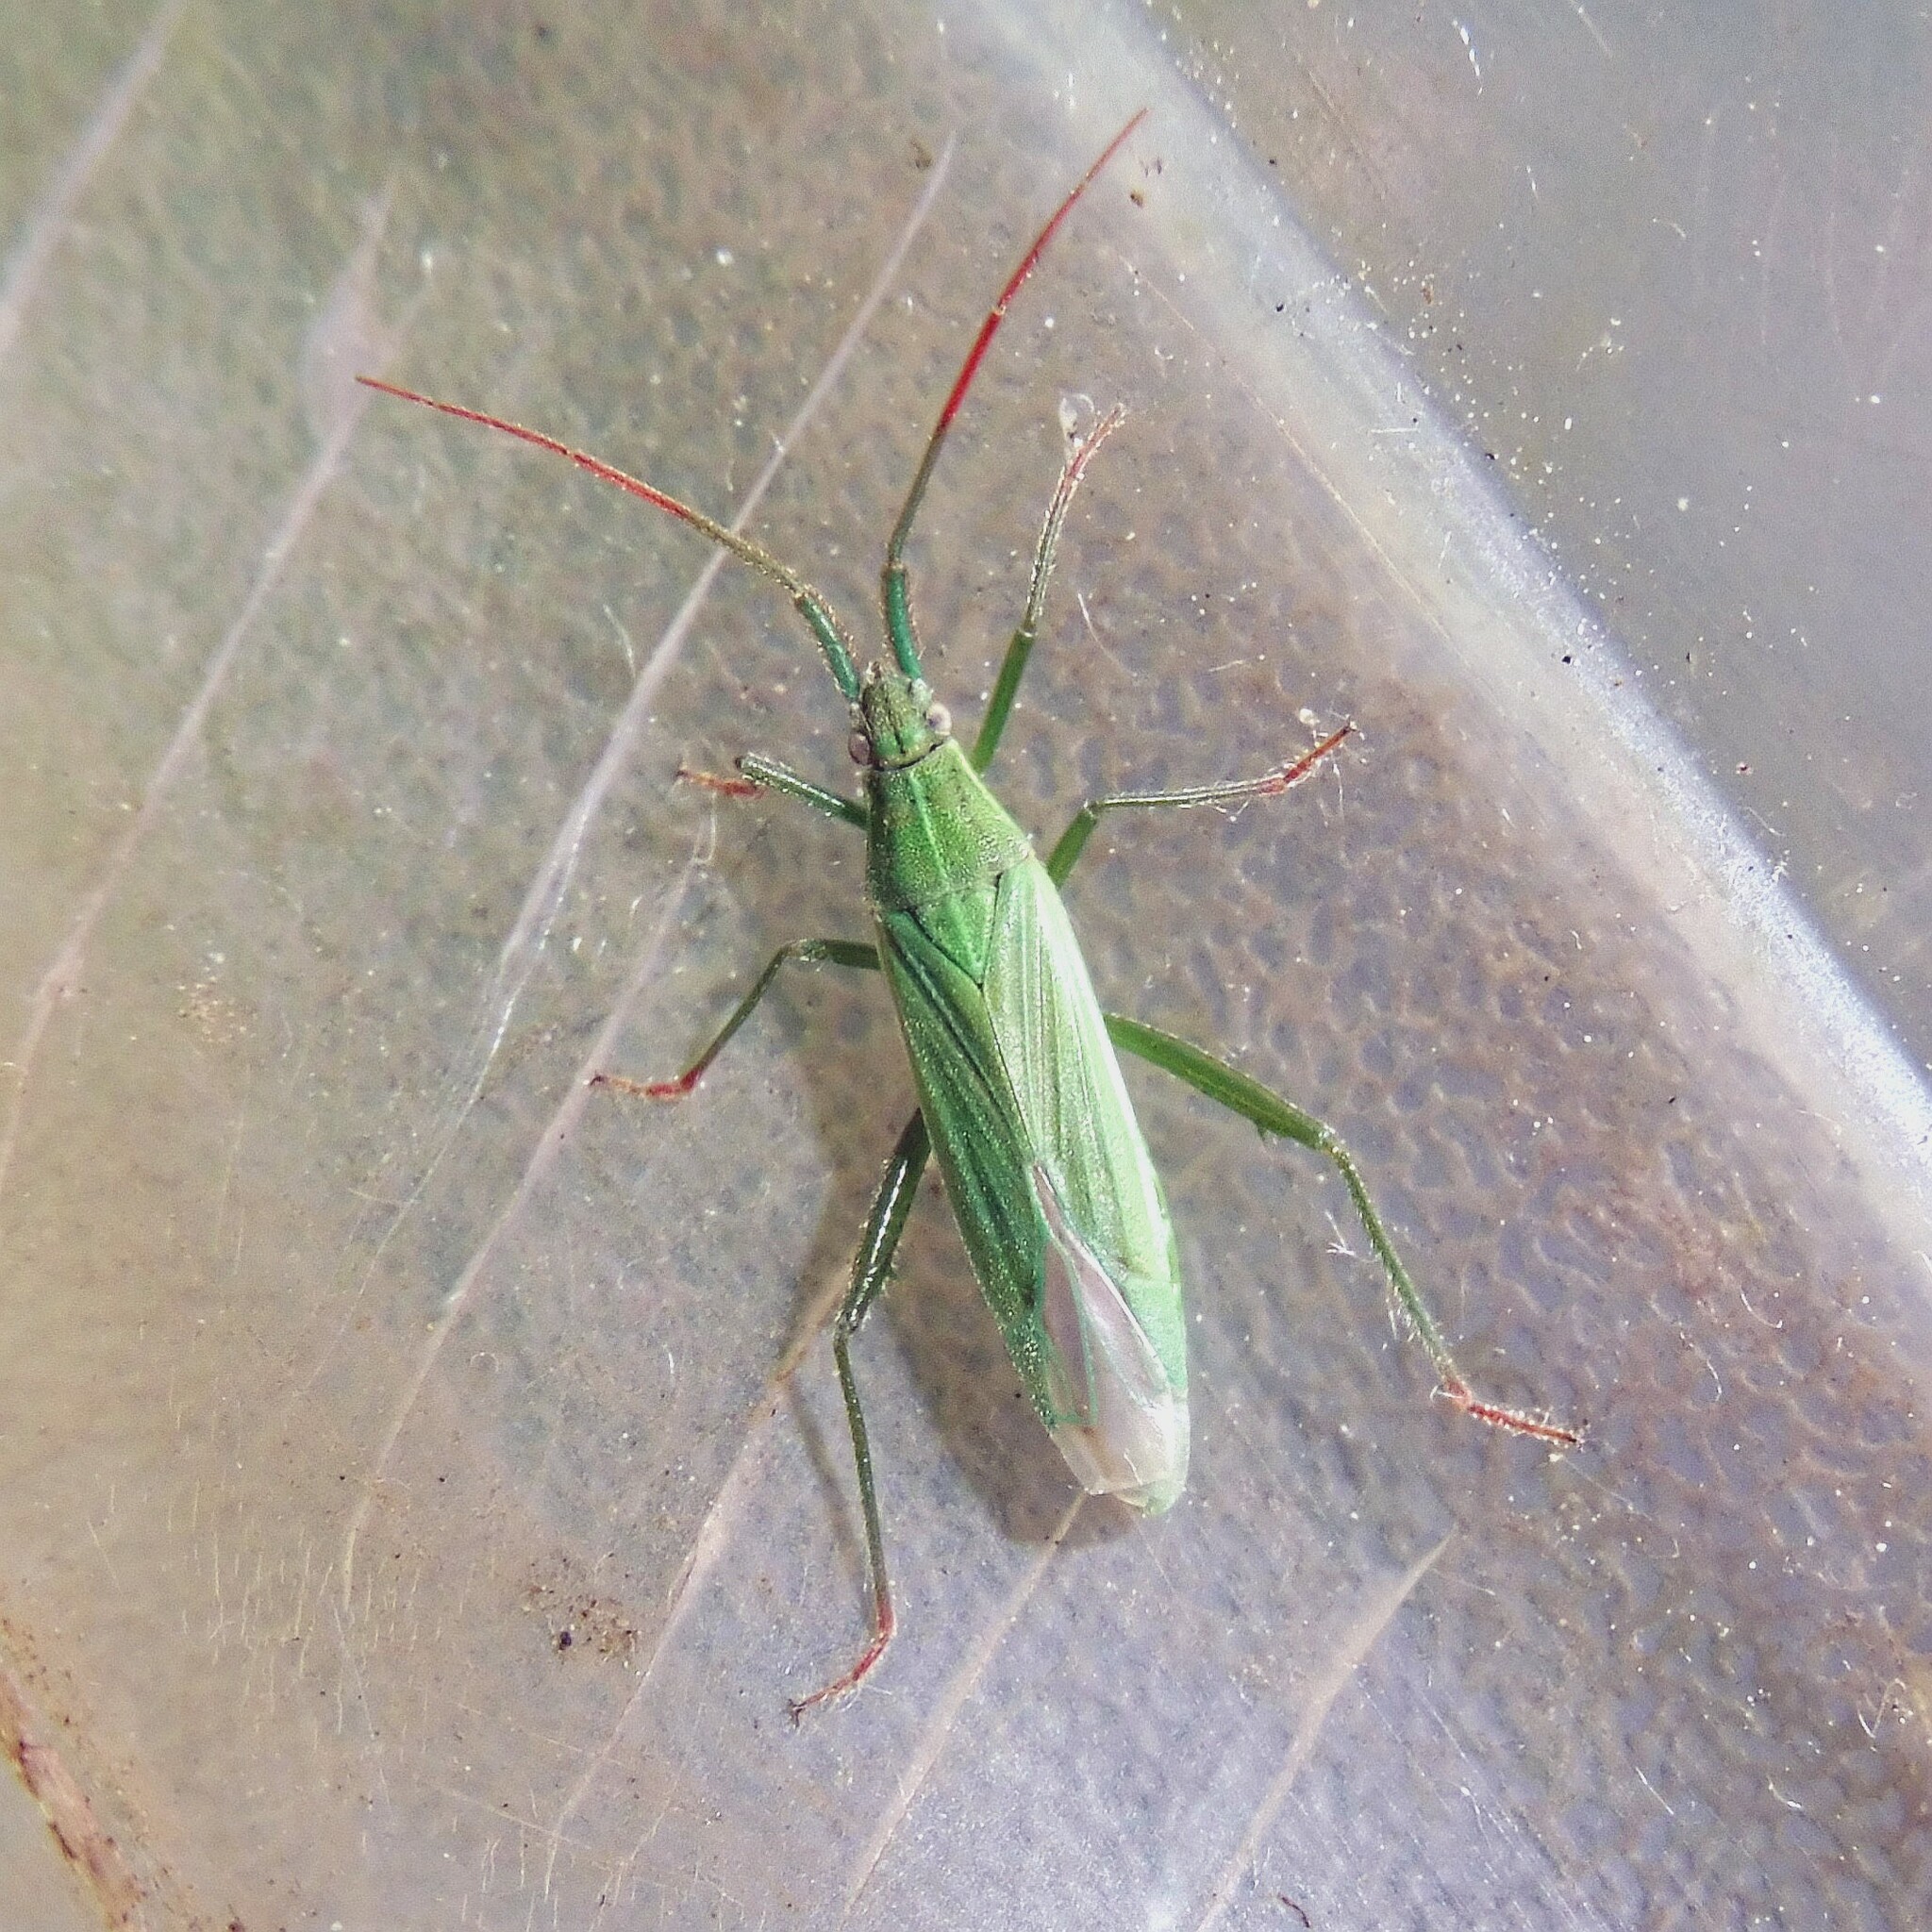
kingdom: Animalia
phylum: Arthropoda
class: Insecta
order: Hemiptera
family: Miridae
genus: Stenodema
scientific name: Stenodema calcarata
